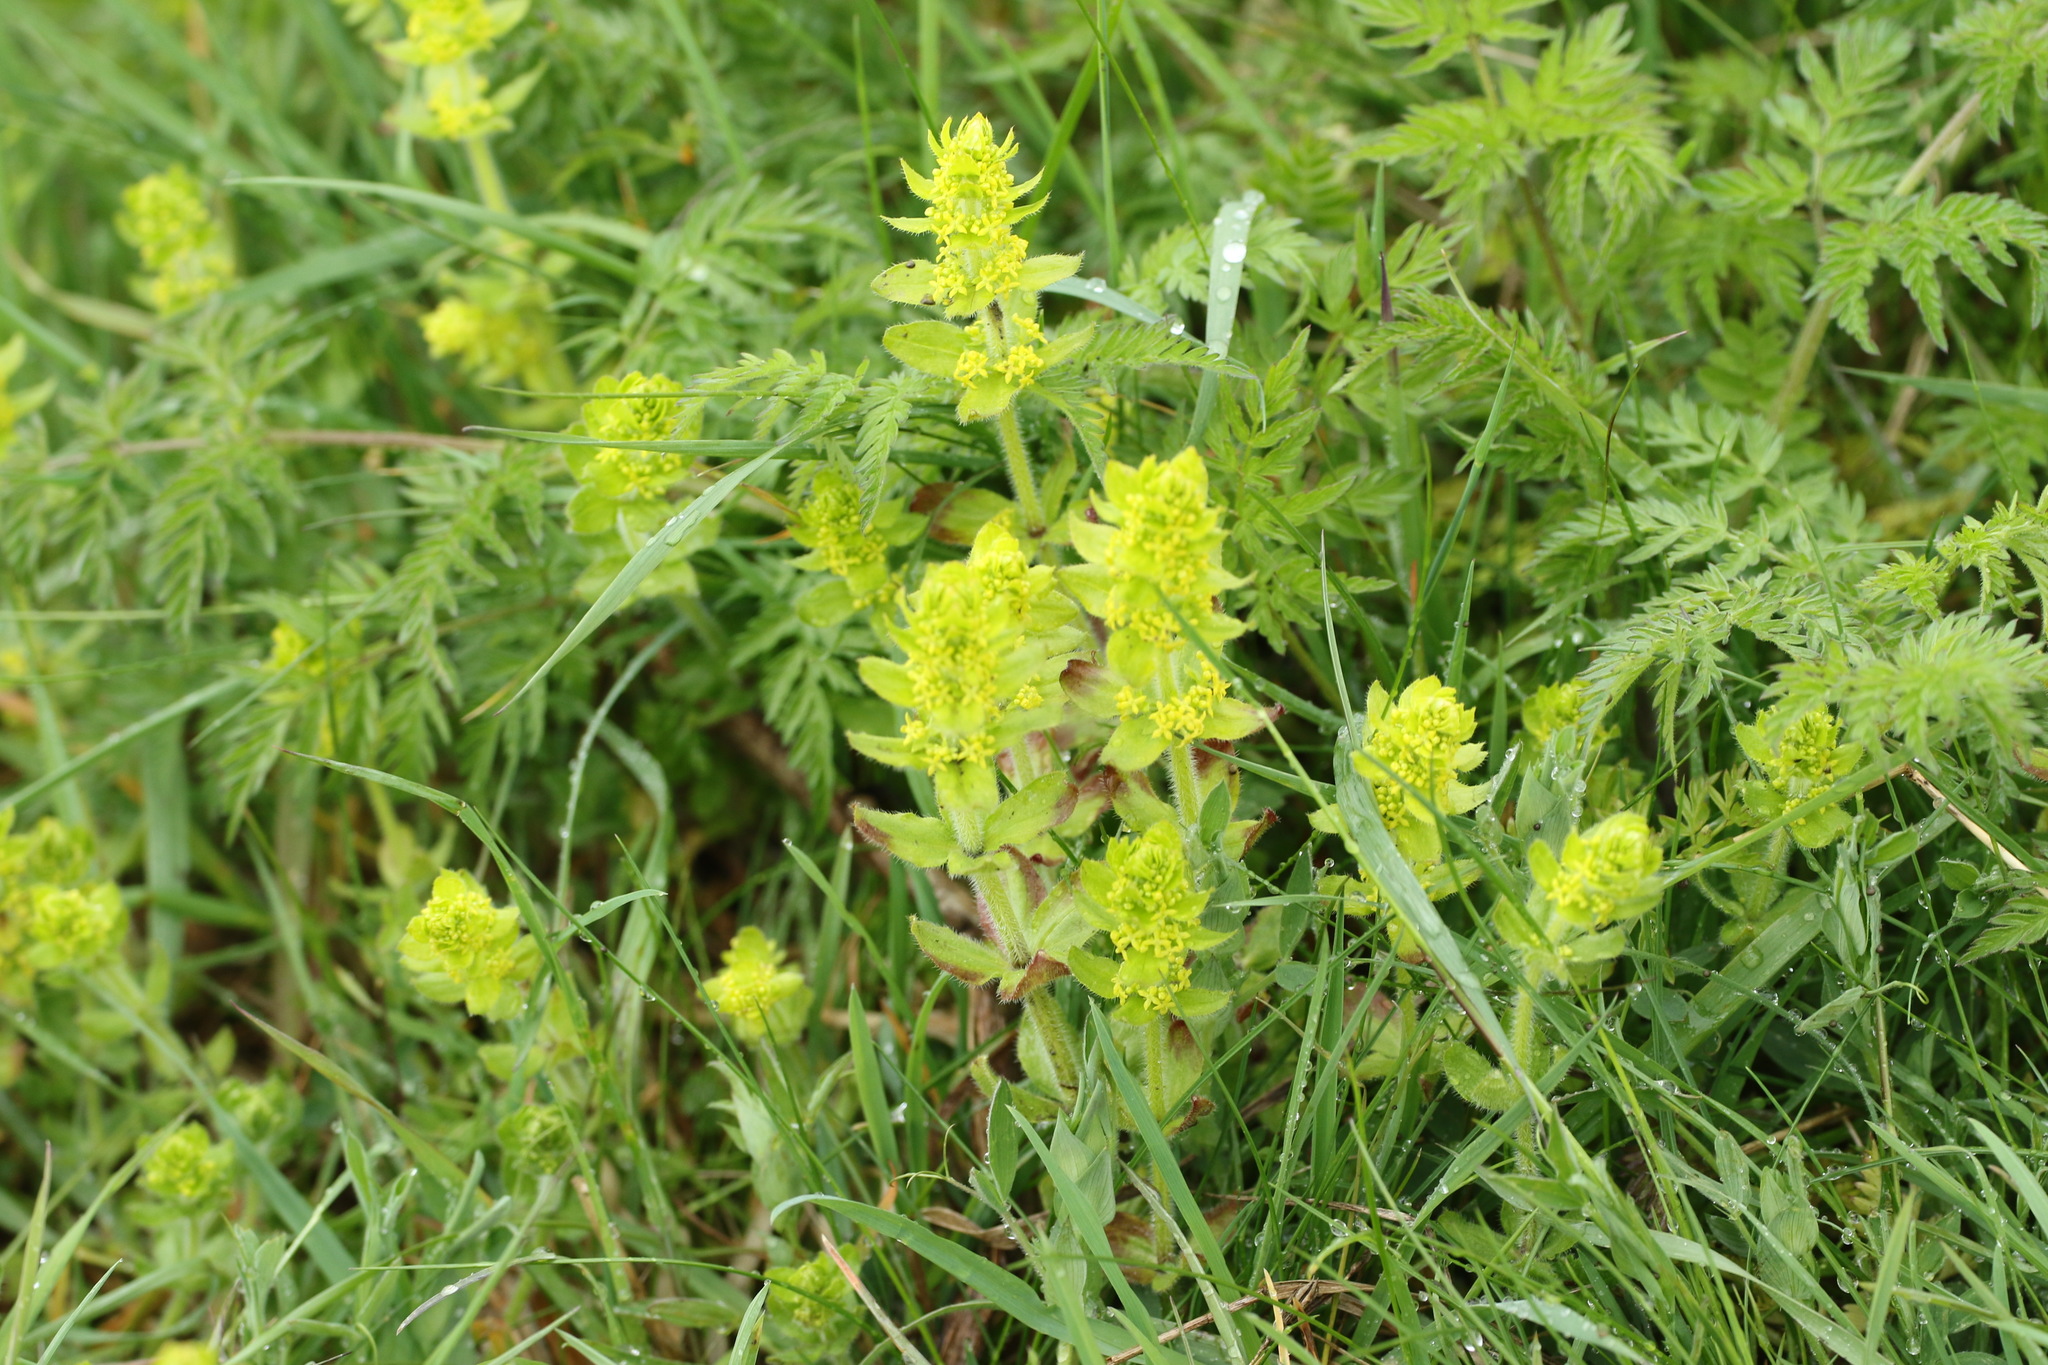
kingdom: Plantae
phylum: Tracheophyta
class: Magnoliopsida
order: Gentianales
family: Rubiaceae
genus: Cruciata
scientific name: Cruciata laevipes
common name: Crosswort
